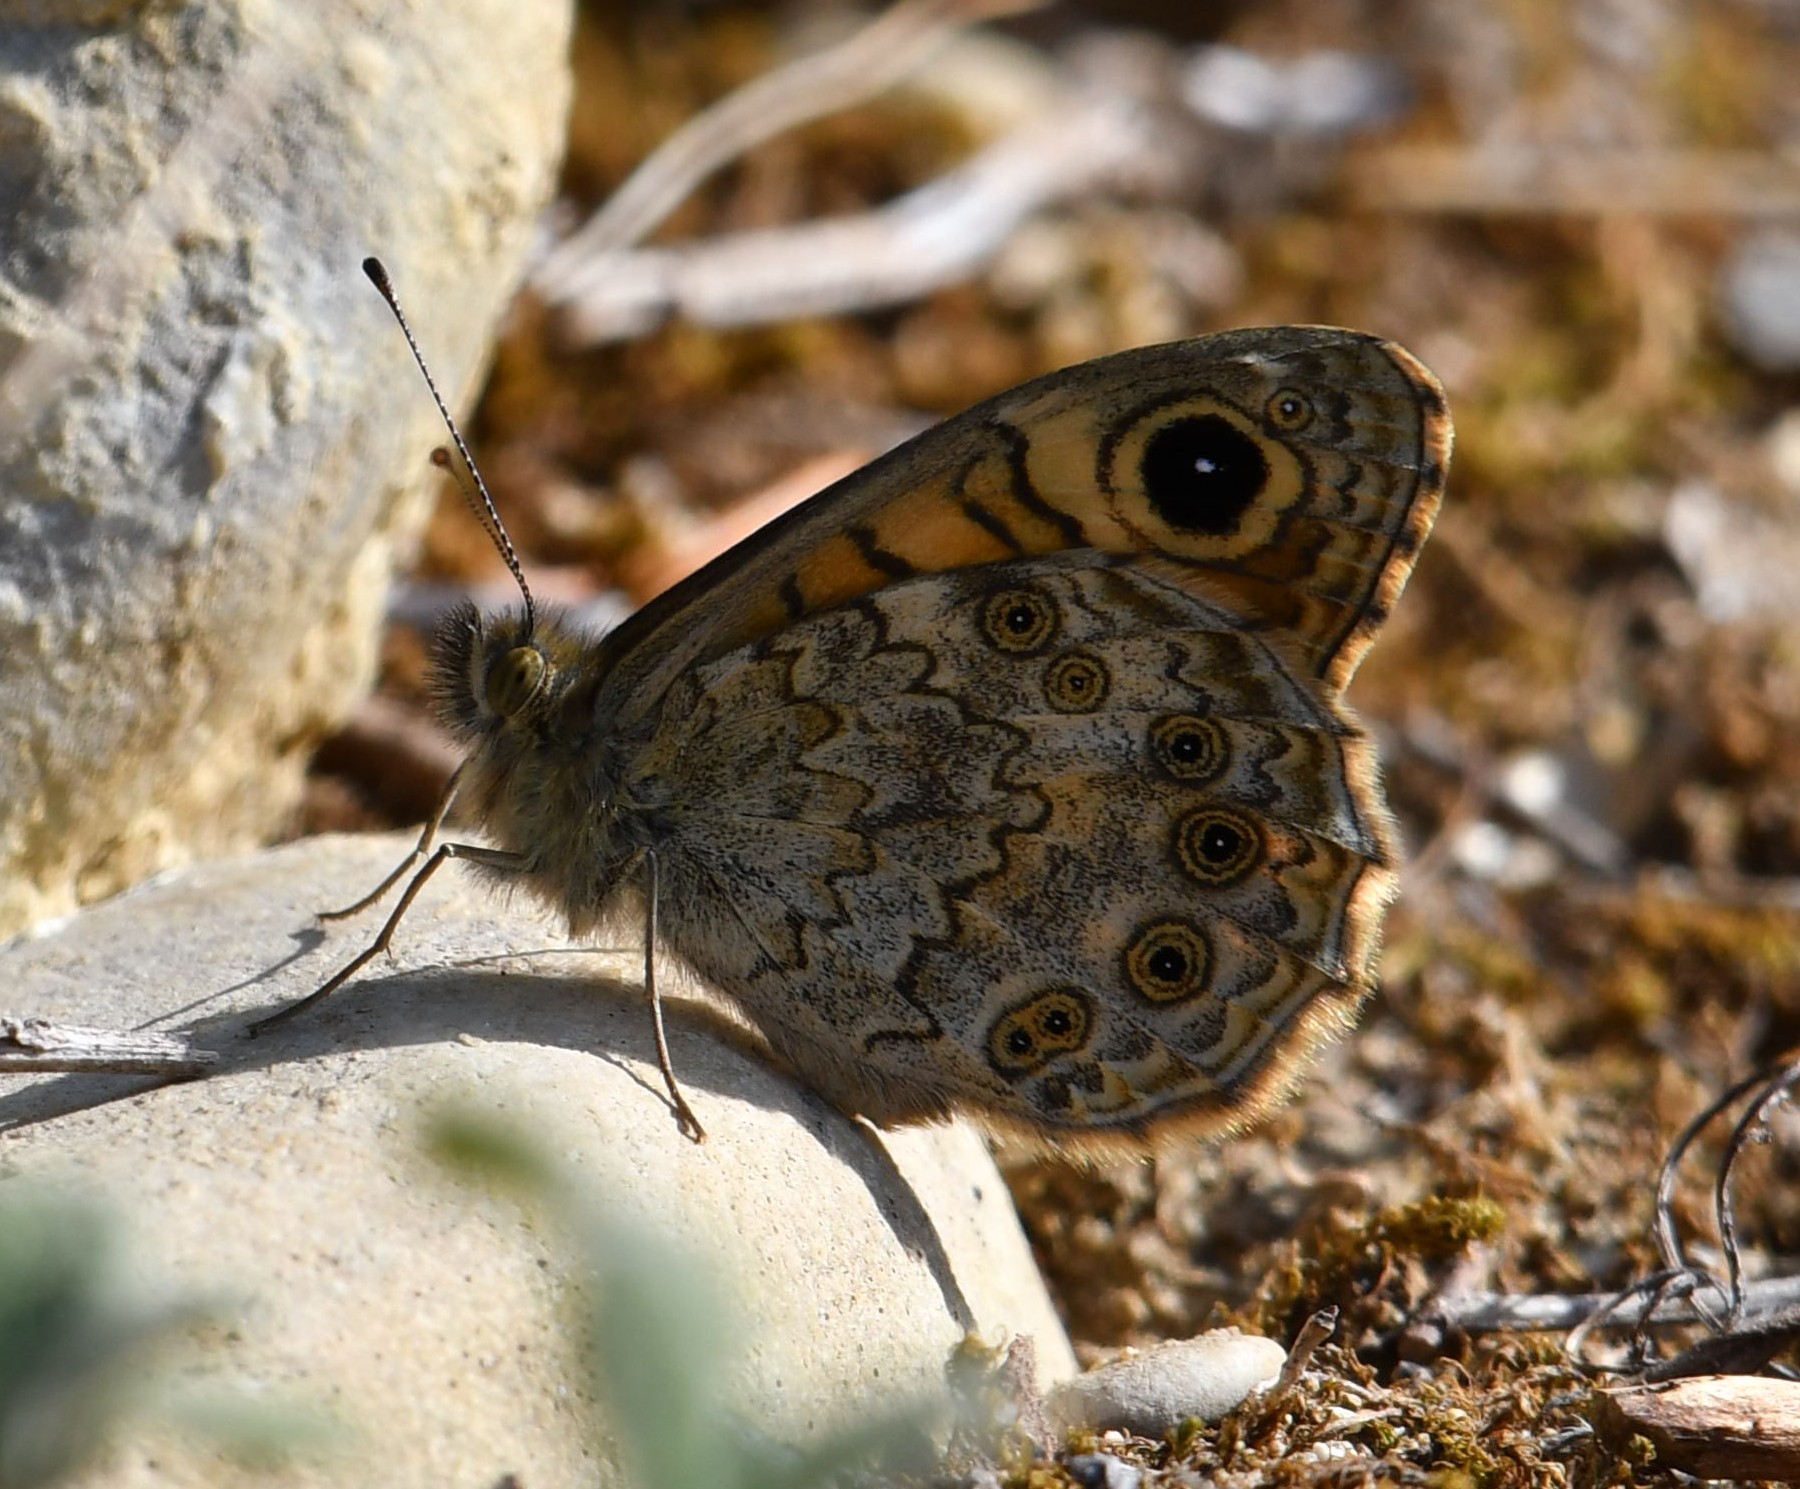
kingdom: Animalia
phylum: Arthropoda
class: Insecta
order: Lepidoptera
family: Nymphalidae
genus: Pararge
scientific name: Pararge Lasiommata megera
